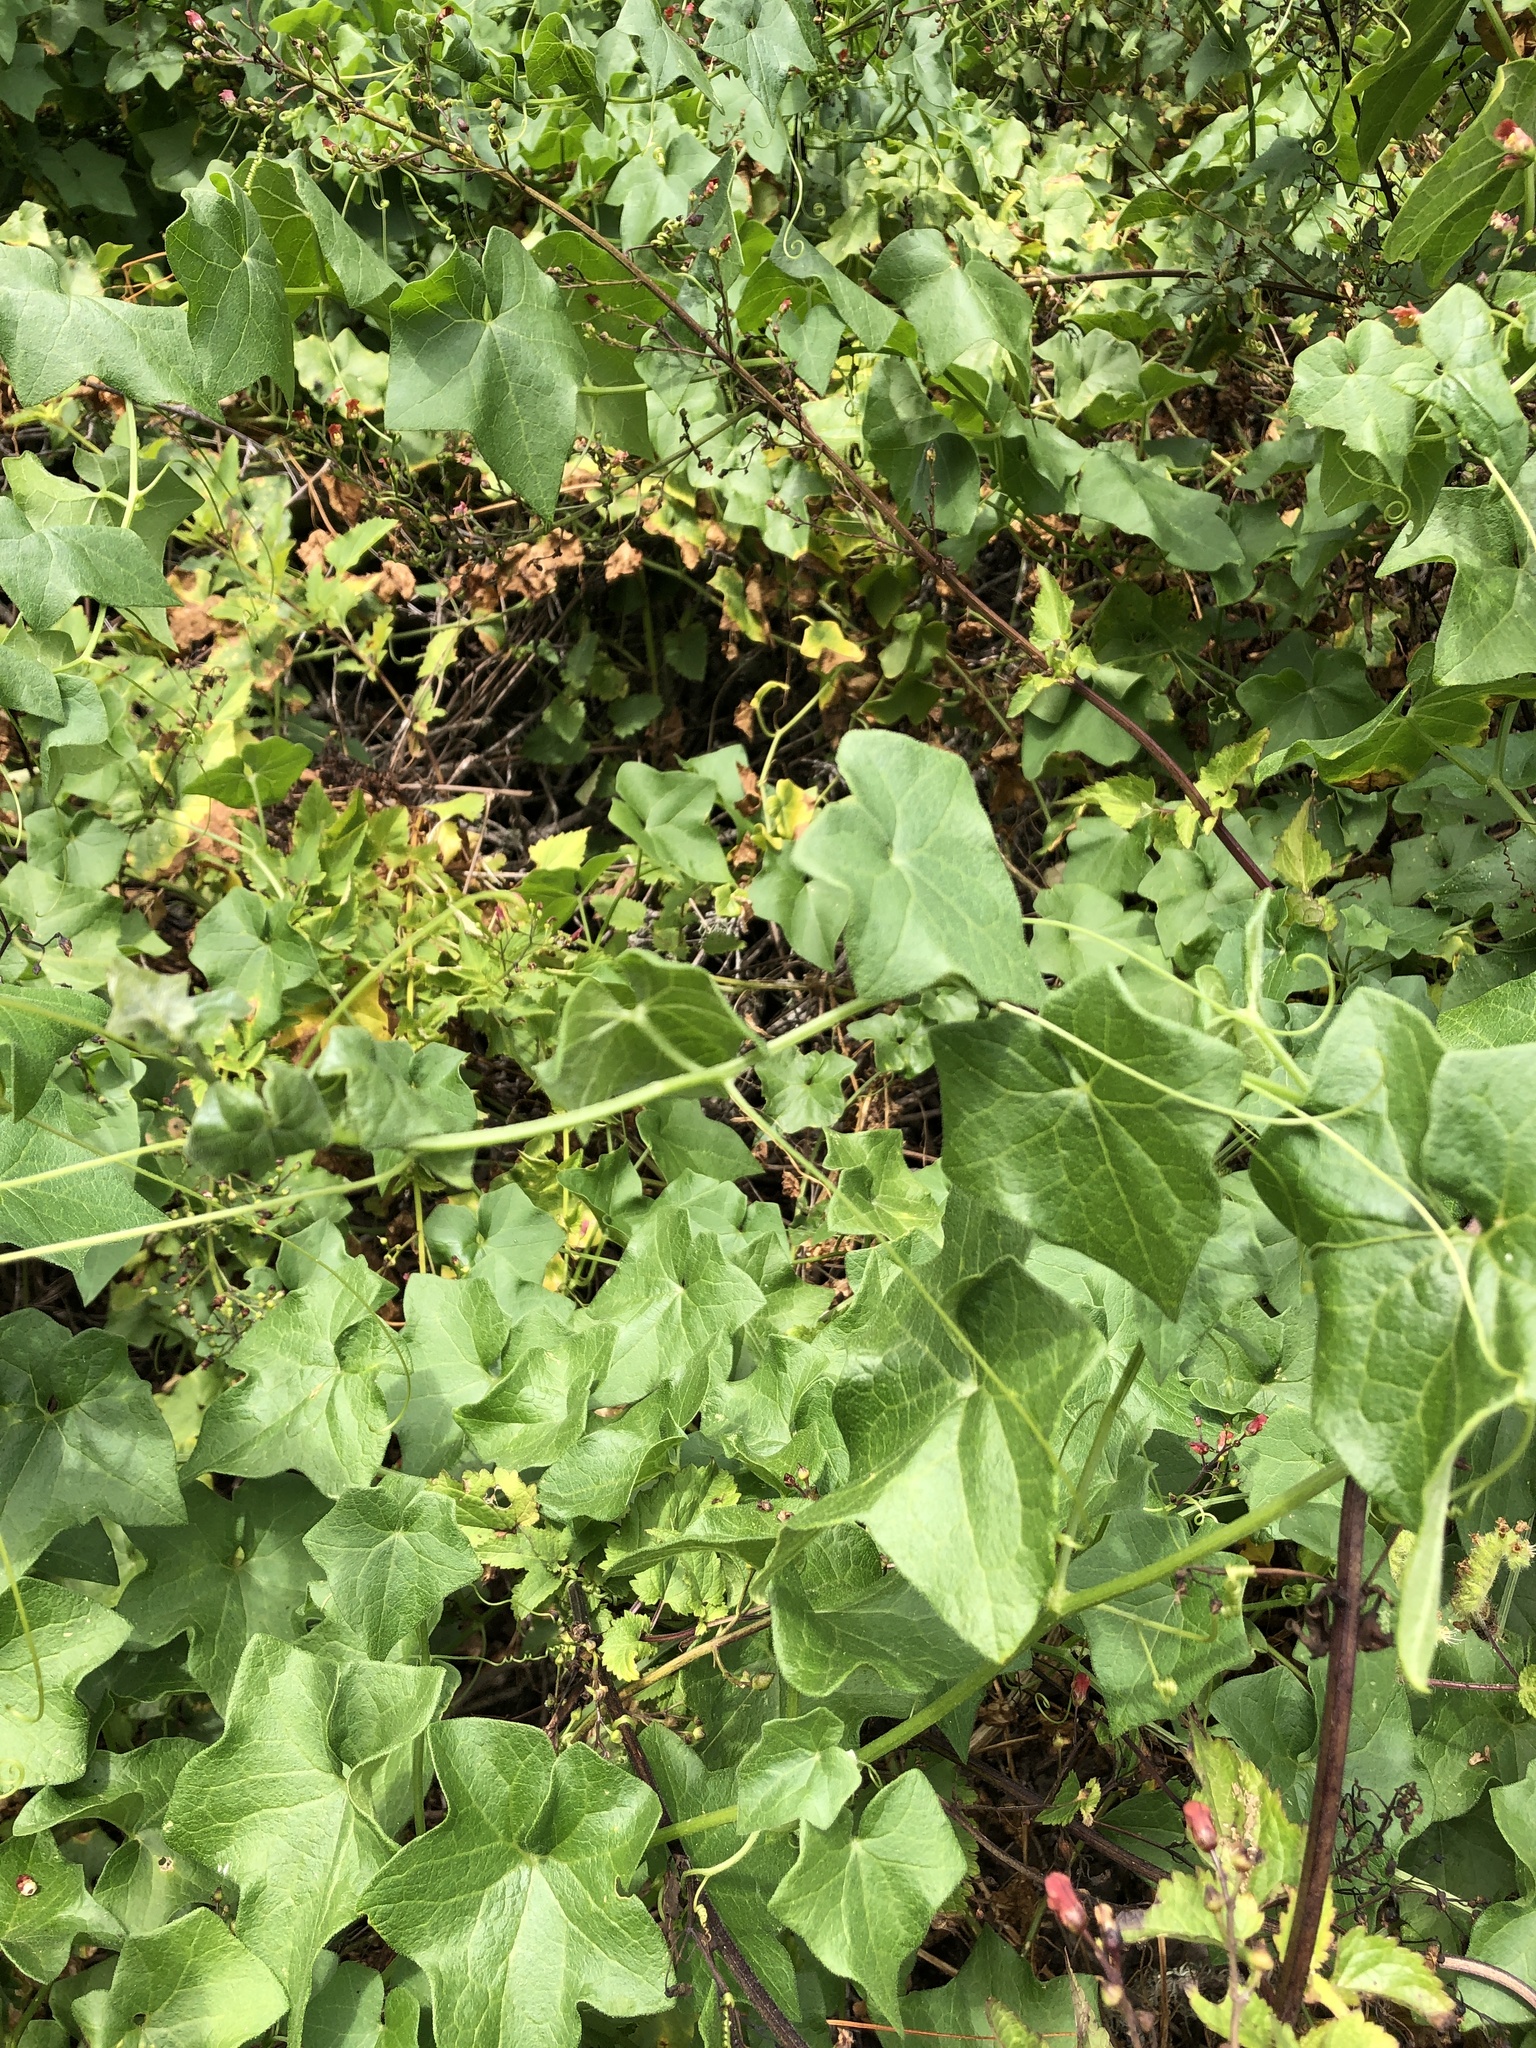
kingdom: Plantae
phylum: Tracheophyta
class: Magnoliopsida
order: Cucurbitales
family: Cucurbitaceae
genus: Marah
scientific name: Marah fabacea
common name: California manroot
